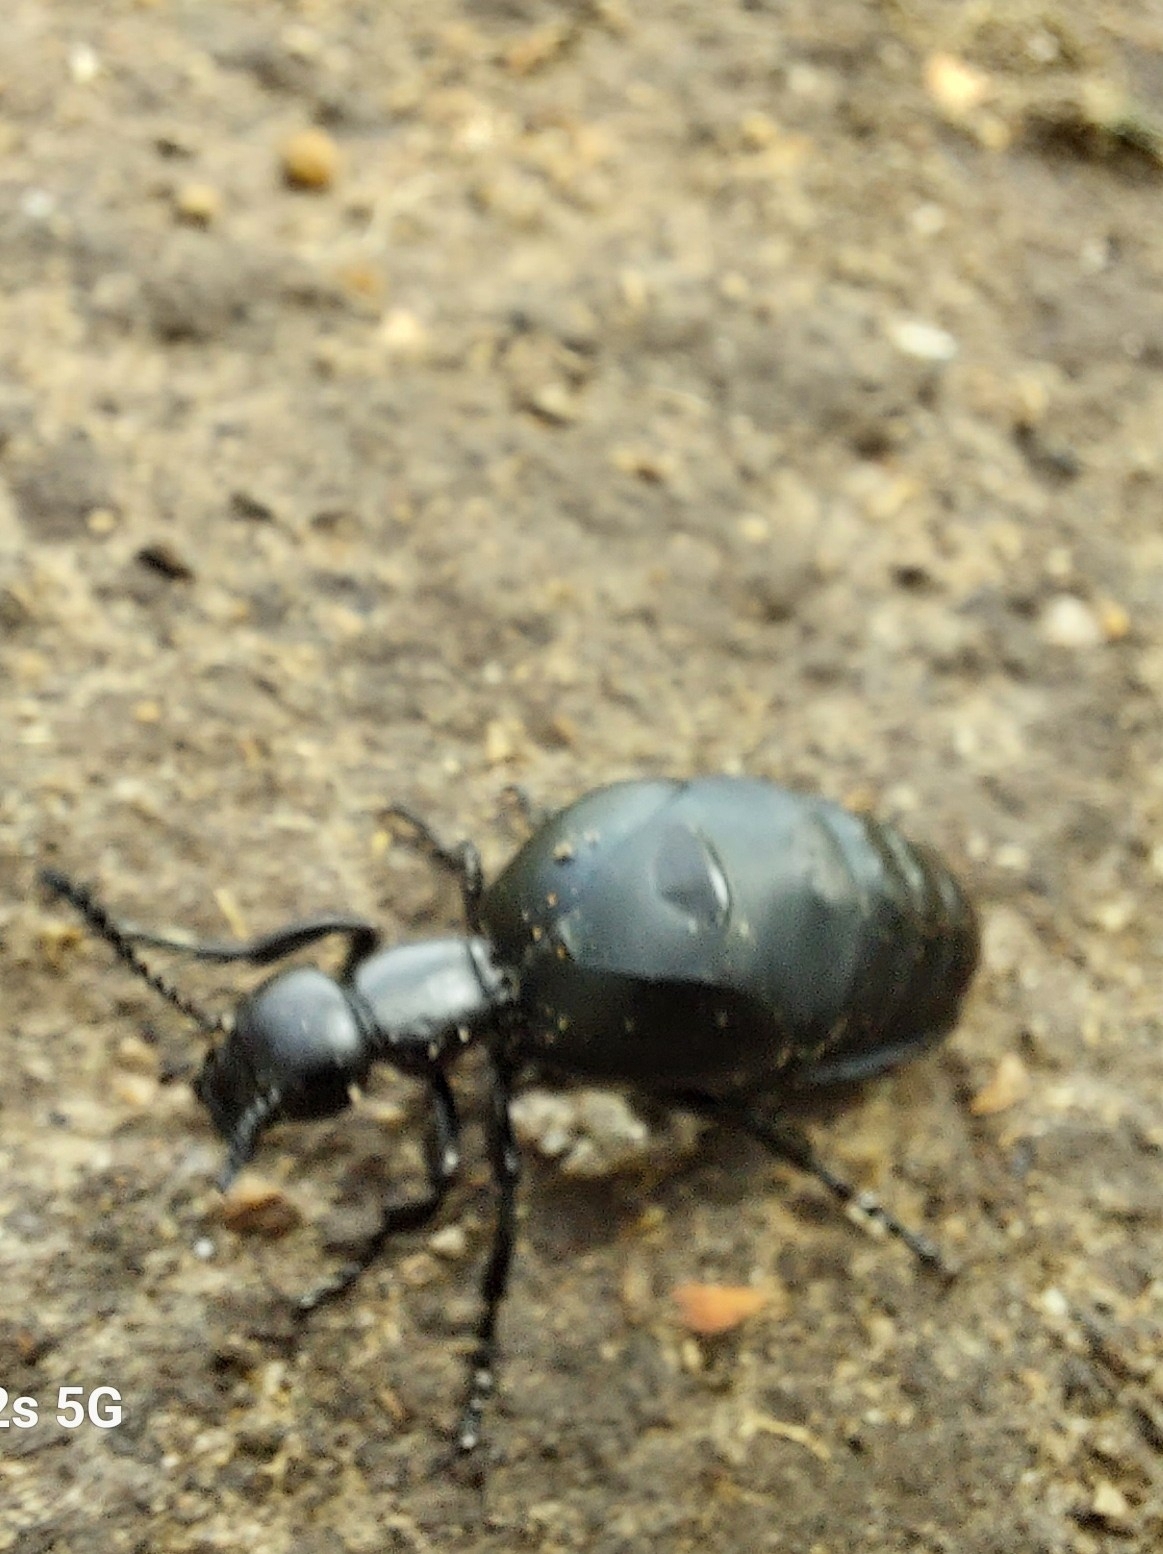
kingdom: Animalia
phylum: Arthropoda
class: Insecta
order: Coleoptera
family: Meloidae
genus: Meloe
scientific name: Meloe laevis
